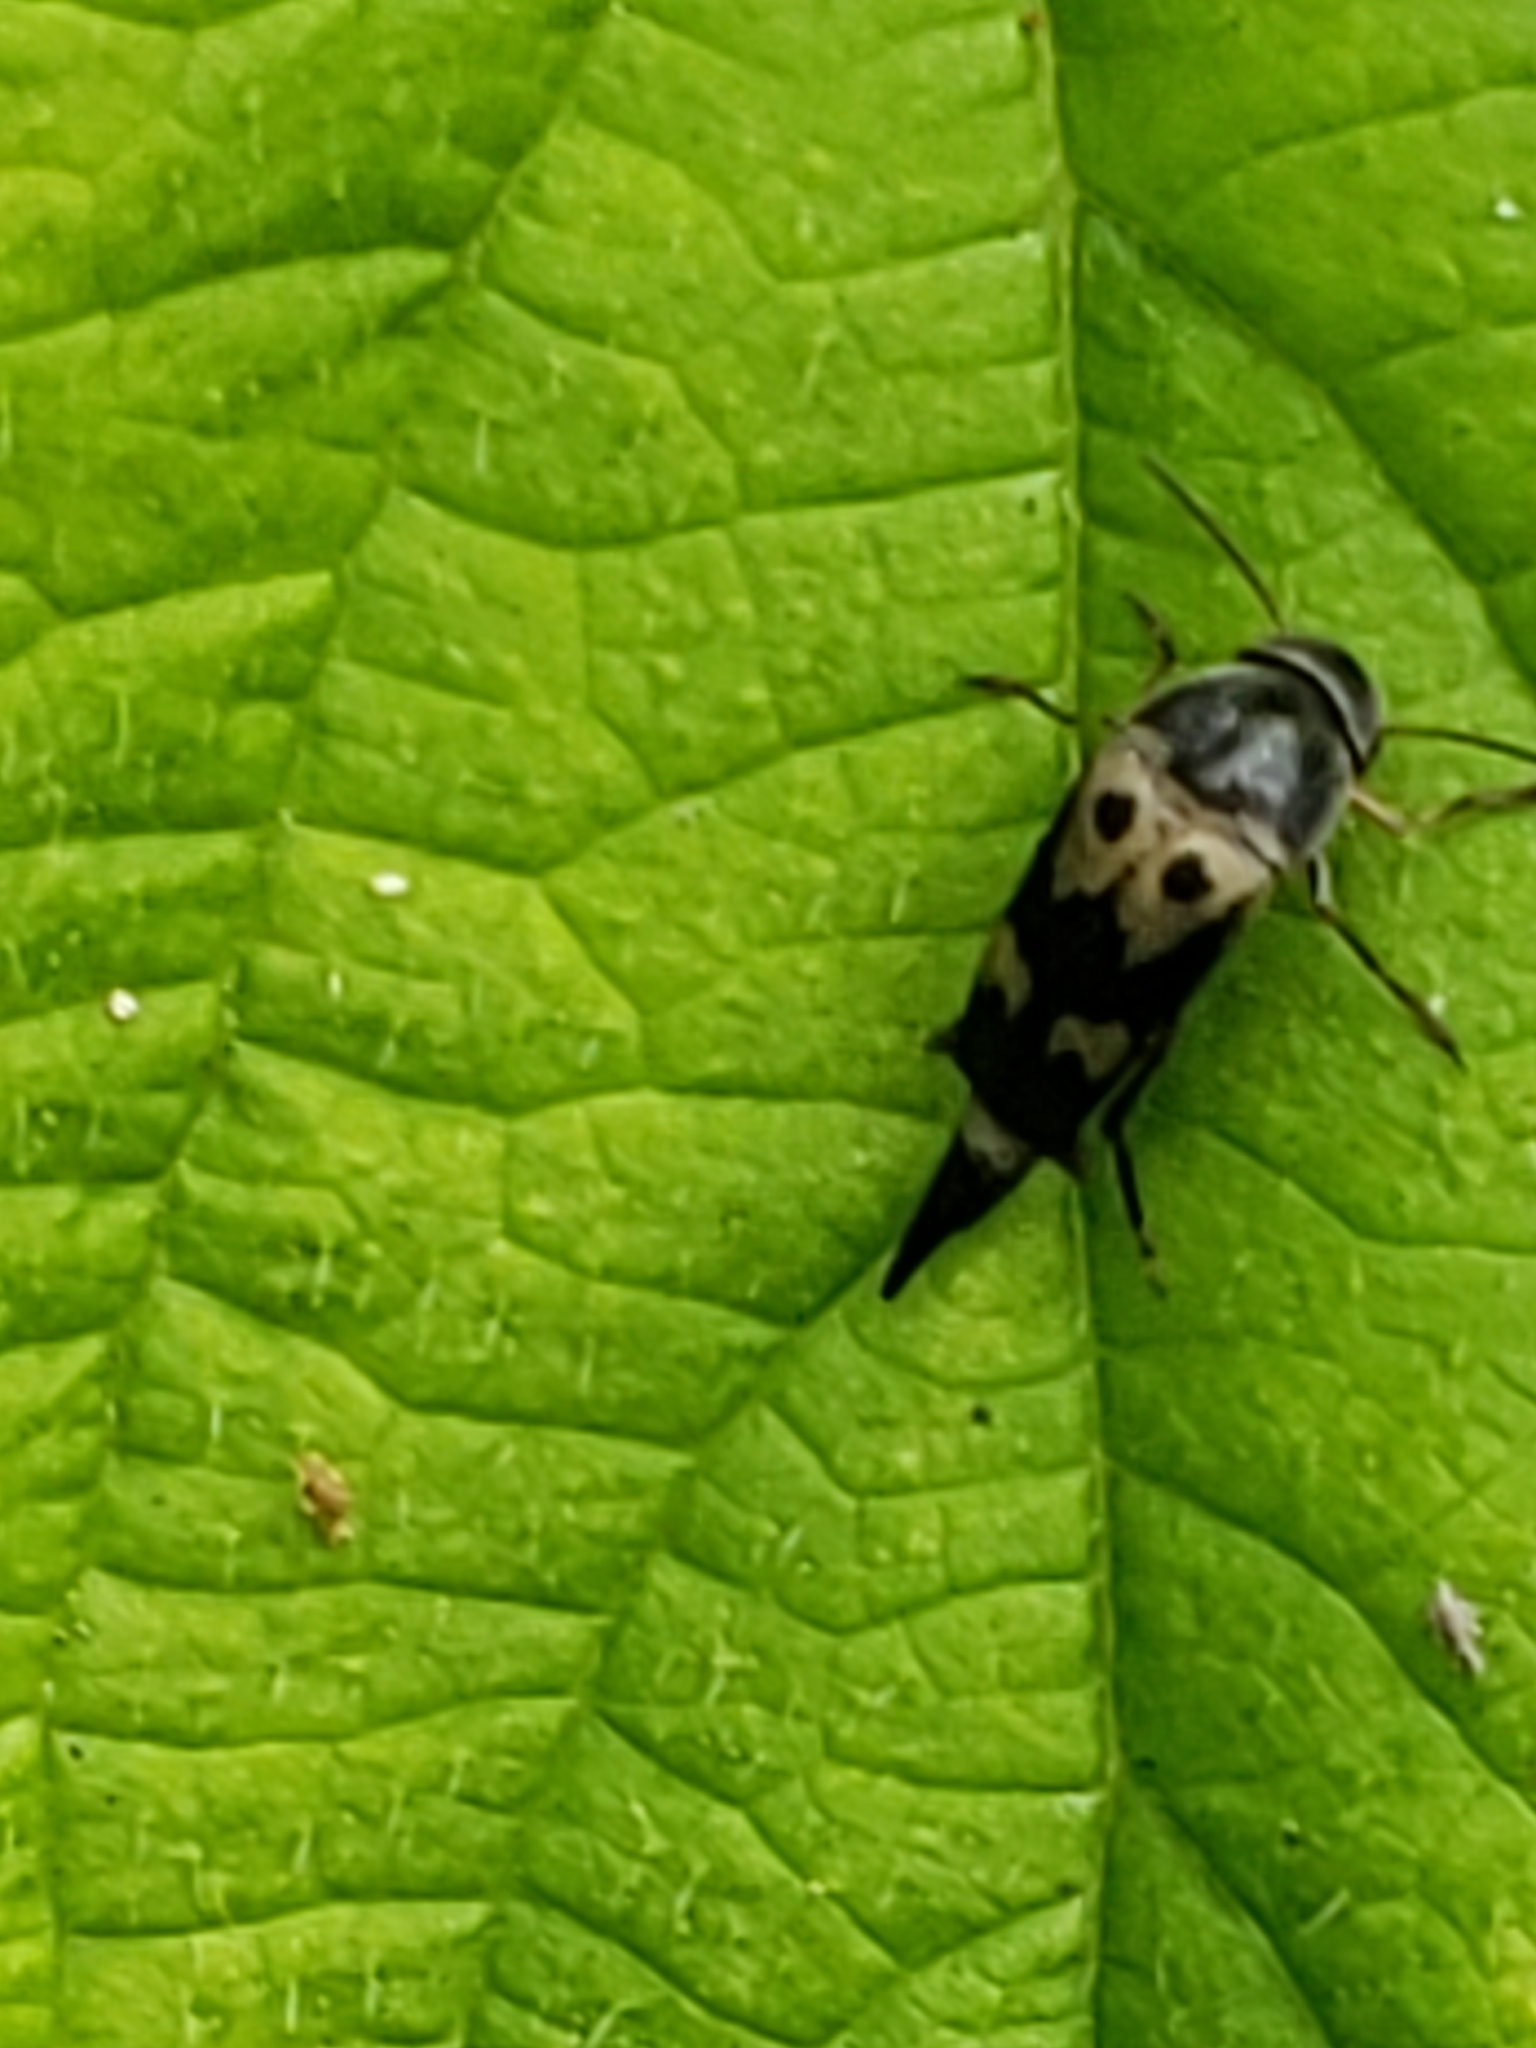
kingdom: Animalia
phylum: Arthropoda
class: Insecta
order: Coleoptera
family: Mordellidae
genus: Glipa
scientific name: Glipa oculata
